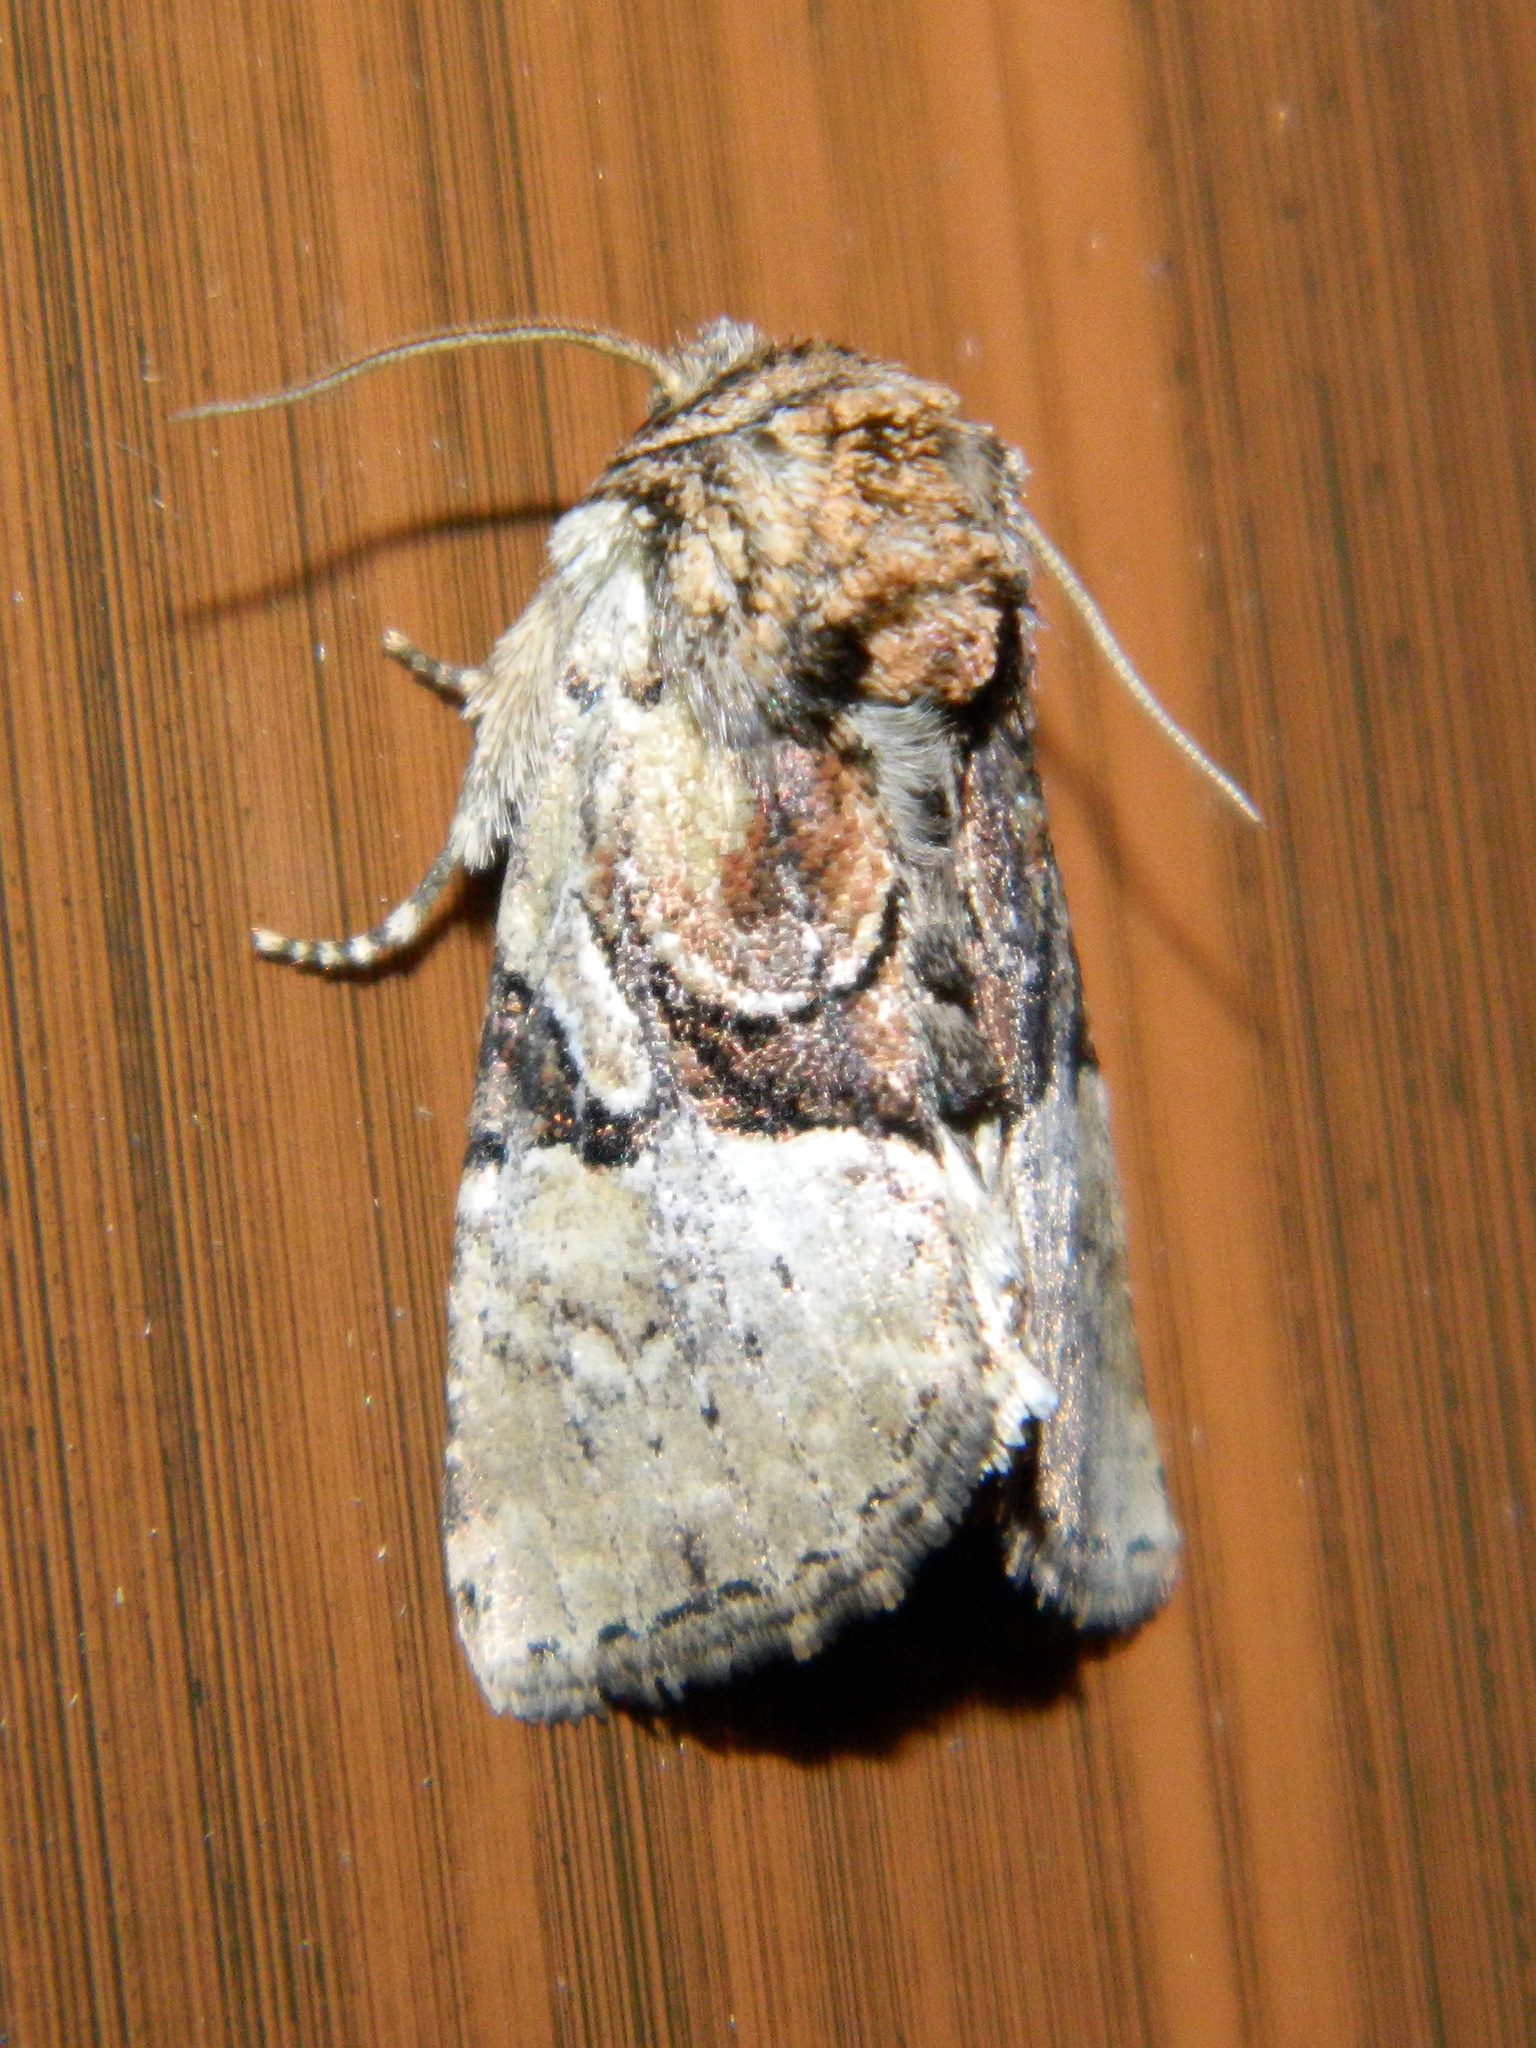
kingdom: Animalia
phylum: Arthropoda
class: Insecta
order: Lepidoptera
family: Noctuidae
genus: Meropleon
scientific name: Meropleon diversicolor
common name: Multicolored sedgeminer moth
